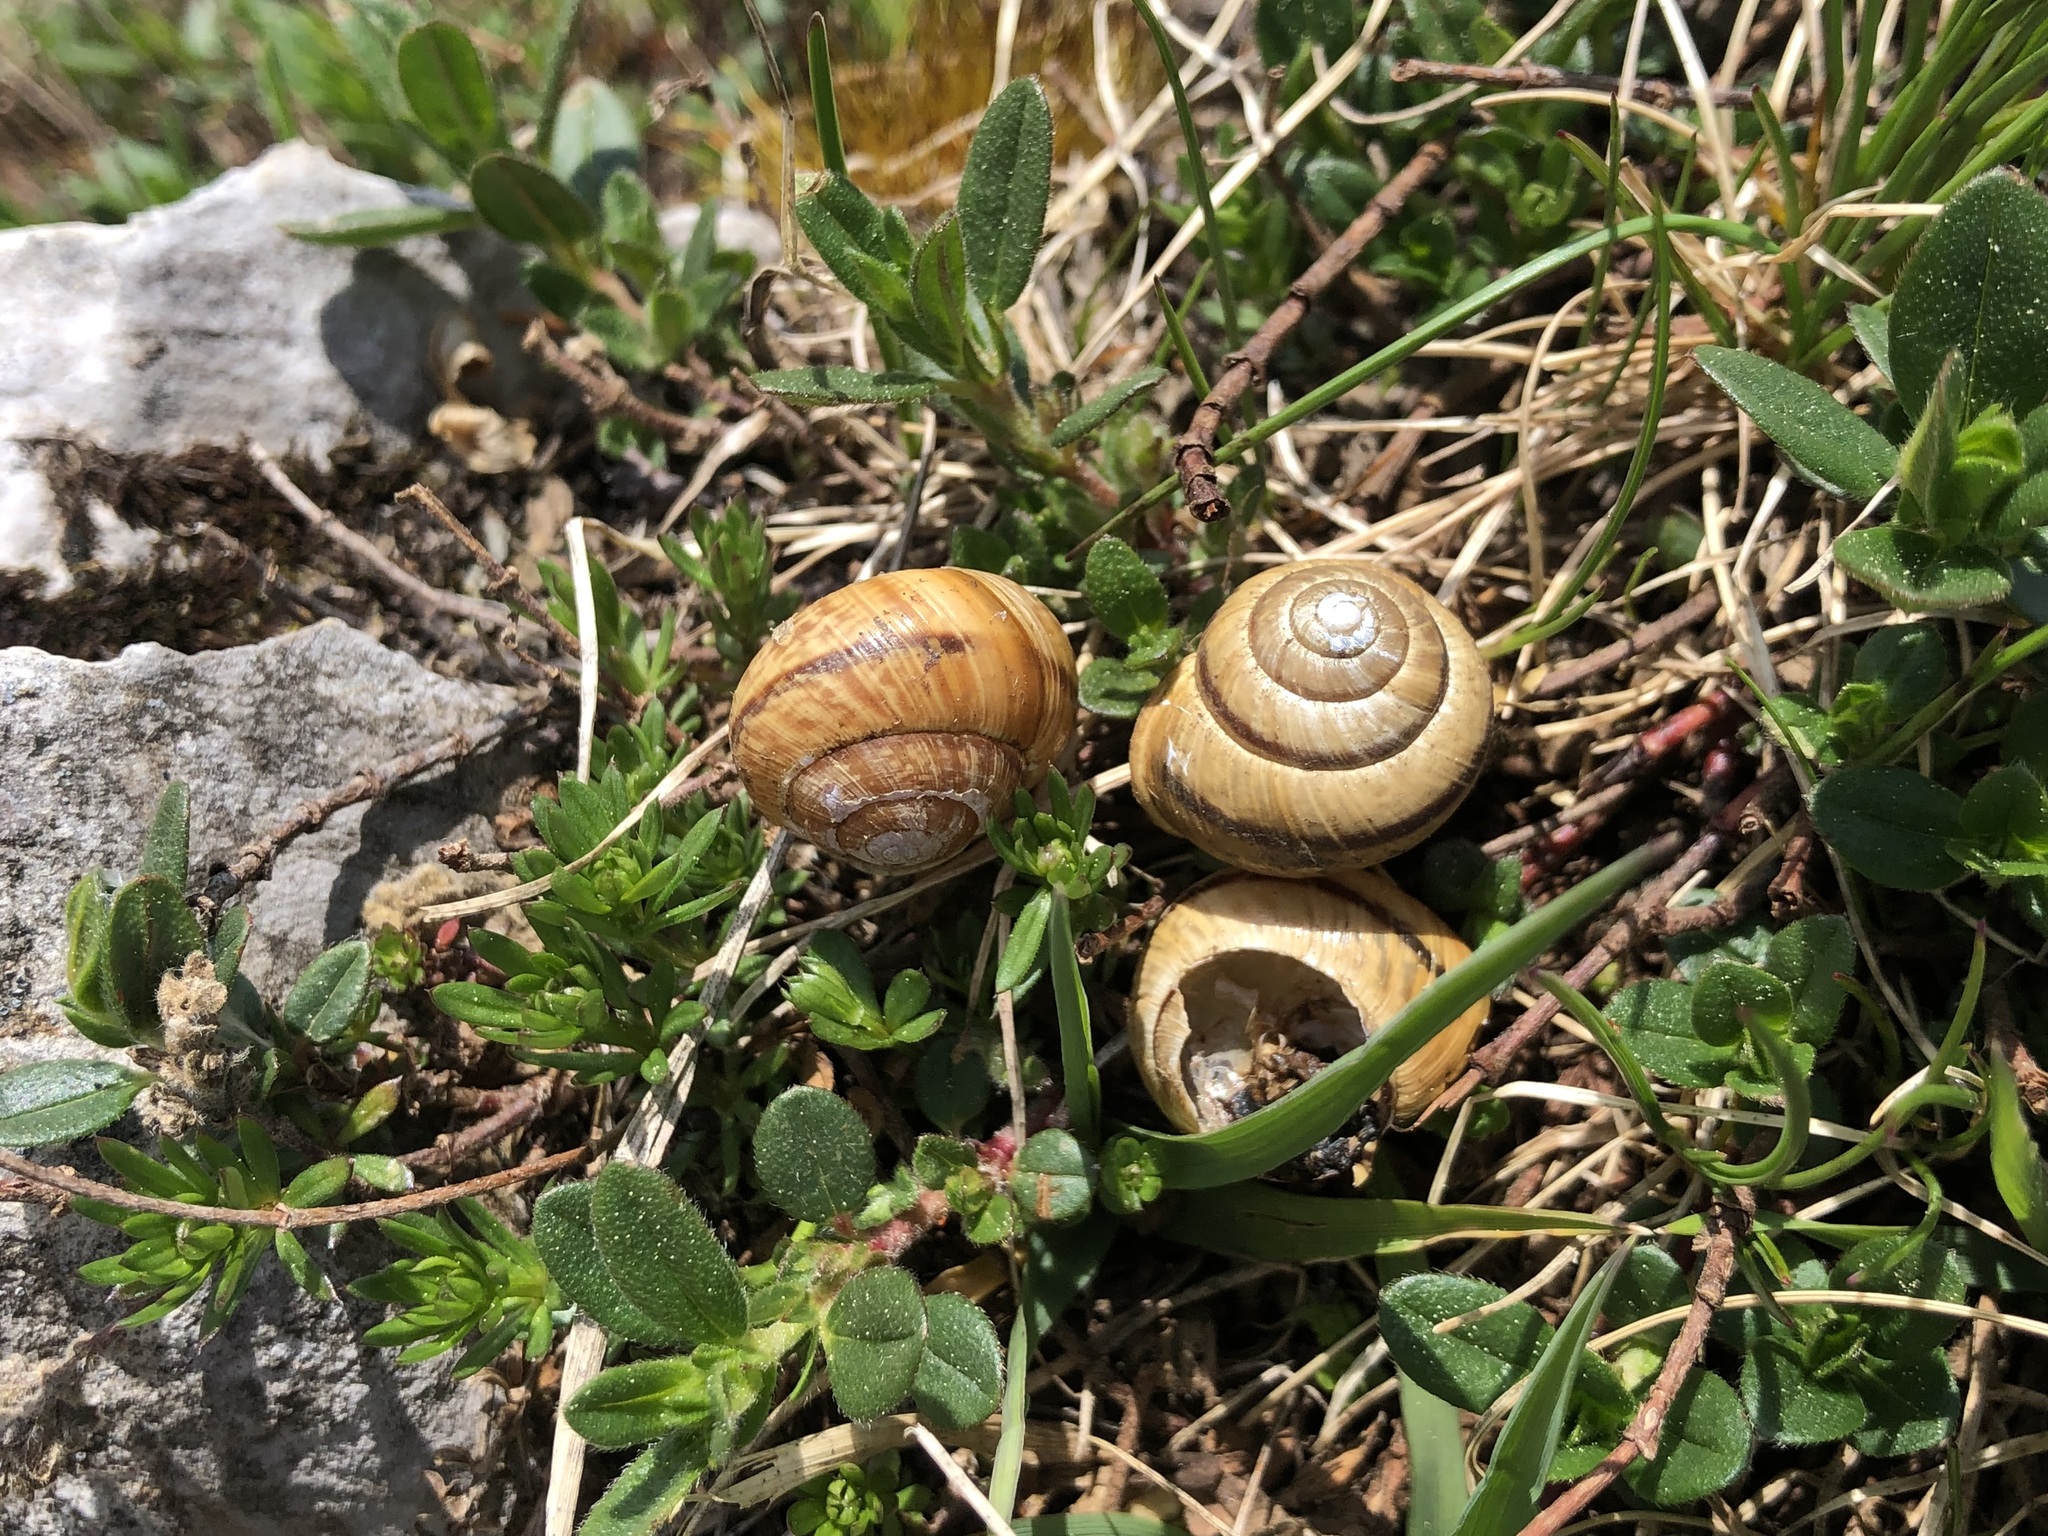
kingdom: Animalia
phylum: Mollusca
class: Gastropoda
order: Stylommatophora
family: Helicidae
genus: Arianta
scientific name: Arianta arbustorum
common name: Copse snail
